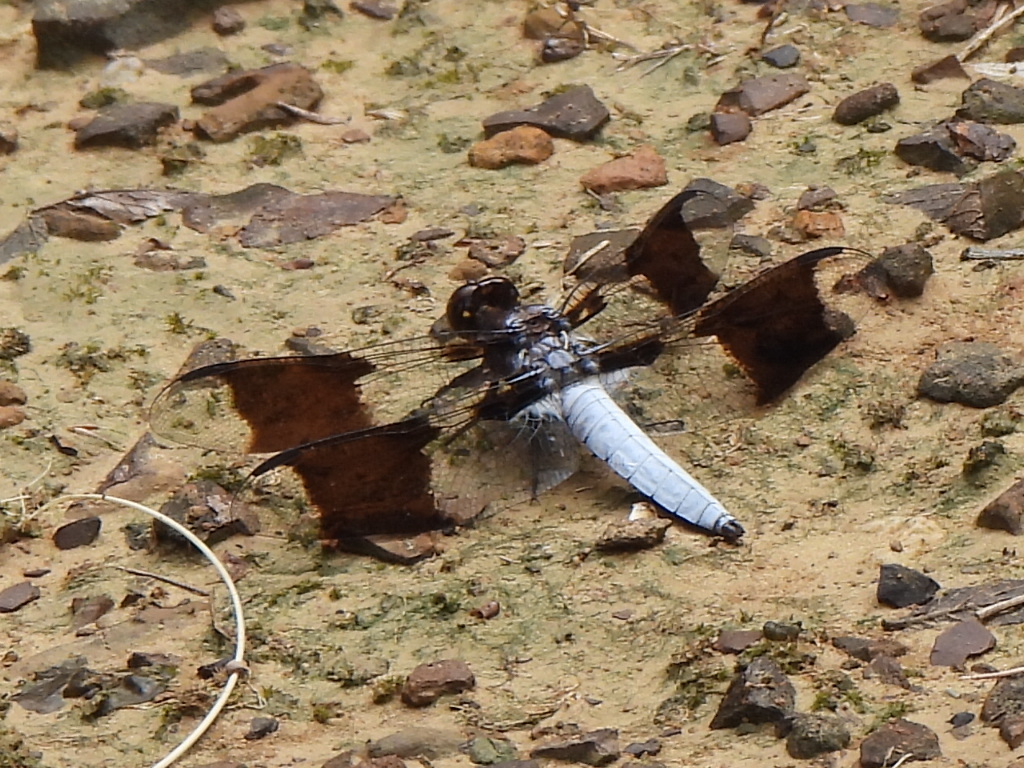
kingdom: Animalia
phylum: Arthropoda
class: Insecta
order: Odonata
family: Libellulidae
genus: Plathemis
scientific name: Plathemis lydia
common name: Common whitetail
